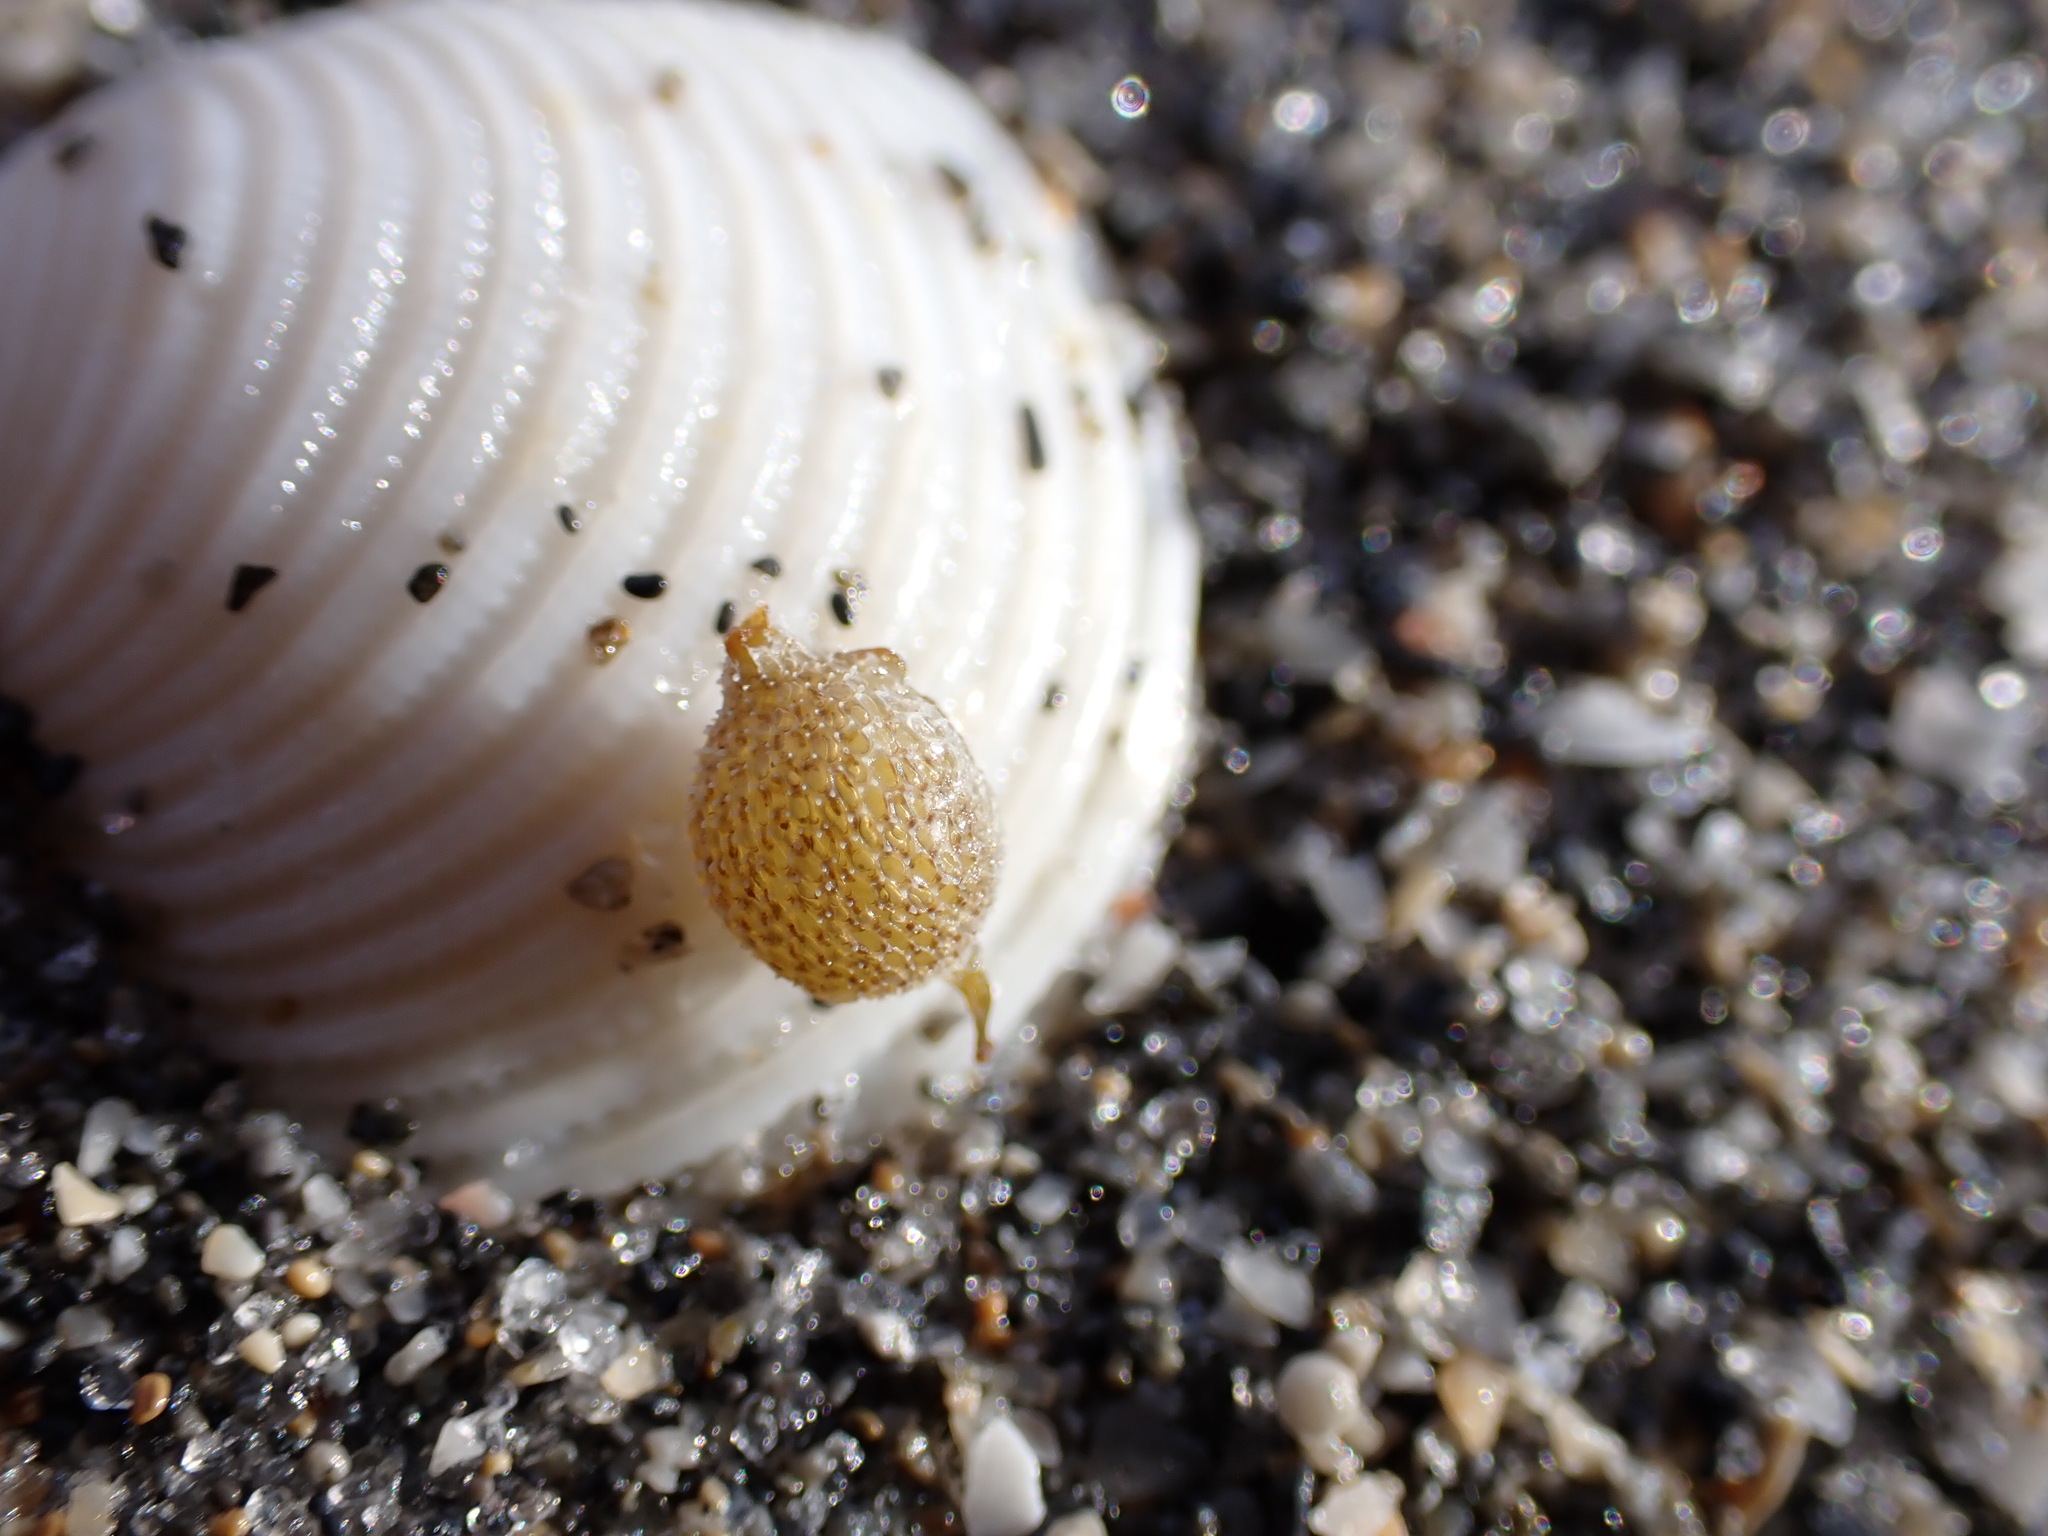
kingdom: Animalia
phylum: Mollusca
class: Bivalvia
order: Venerida
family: Veneridae
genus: Chionopsis
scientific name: Chionopsis intapurpurea
